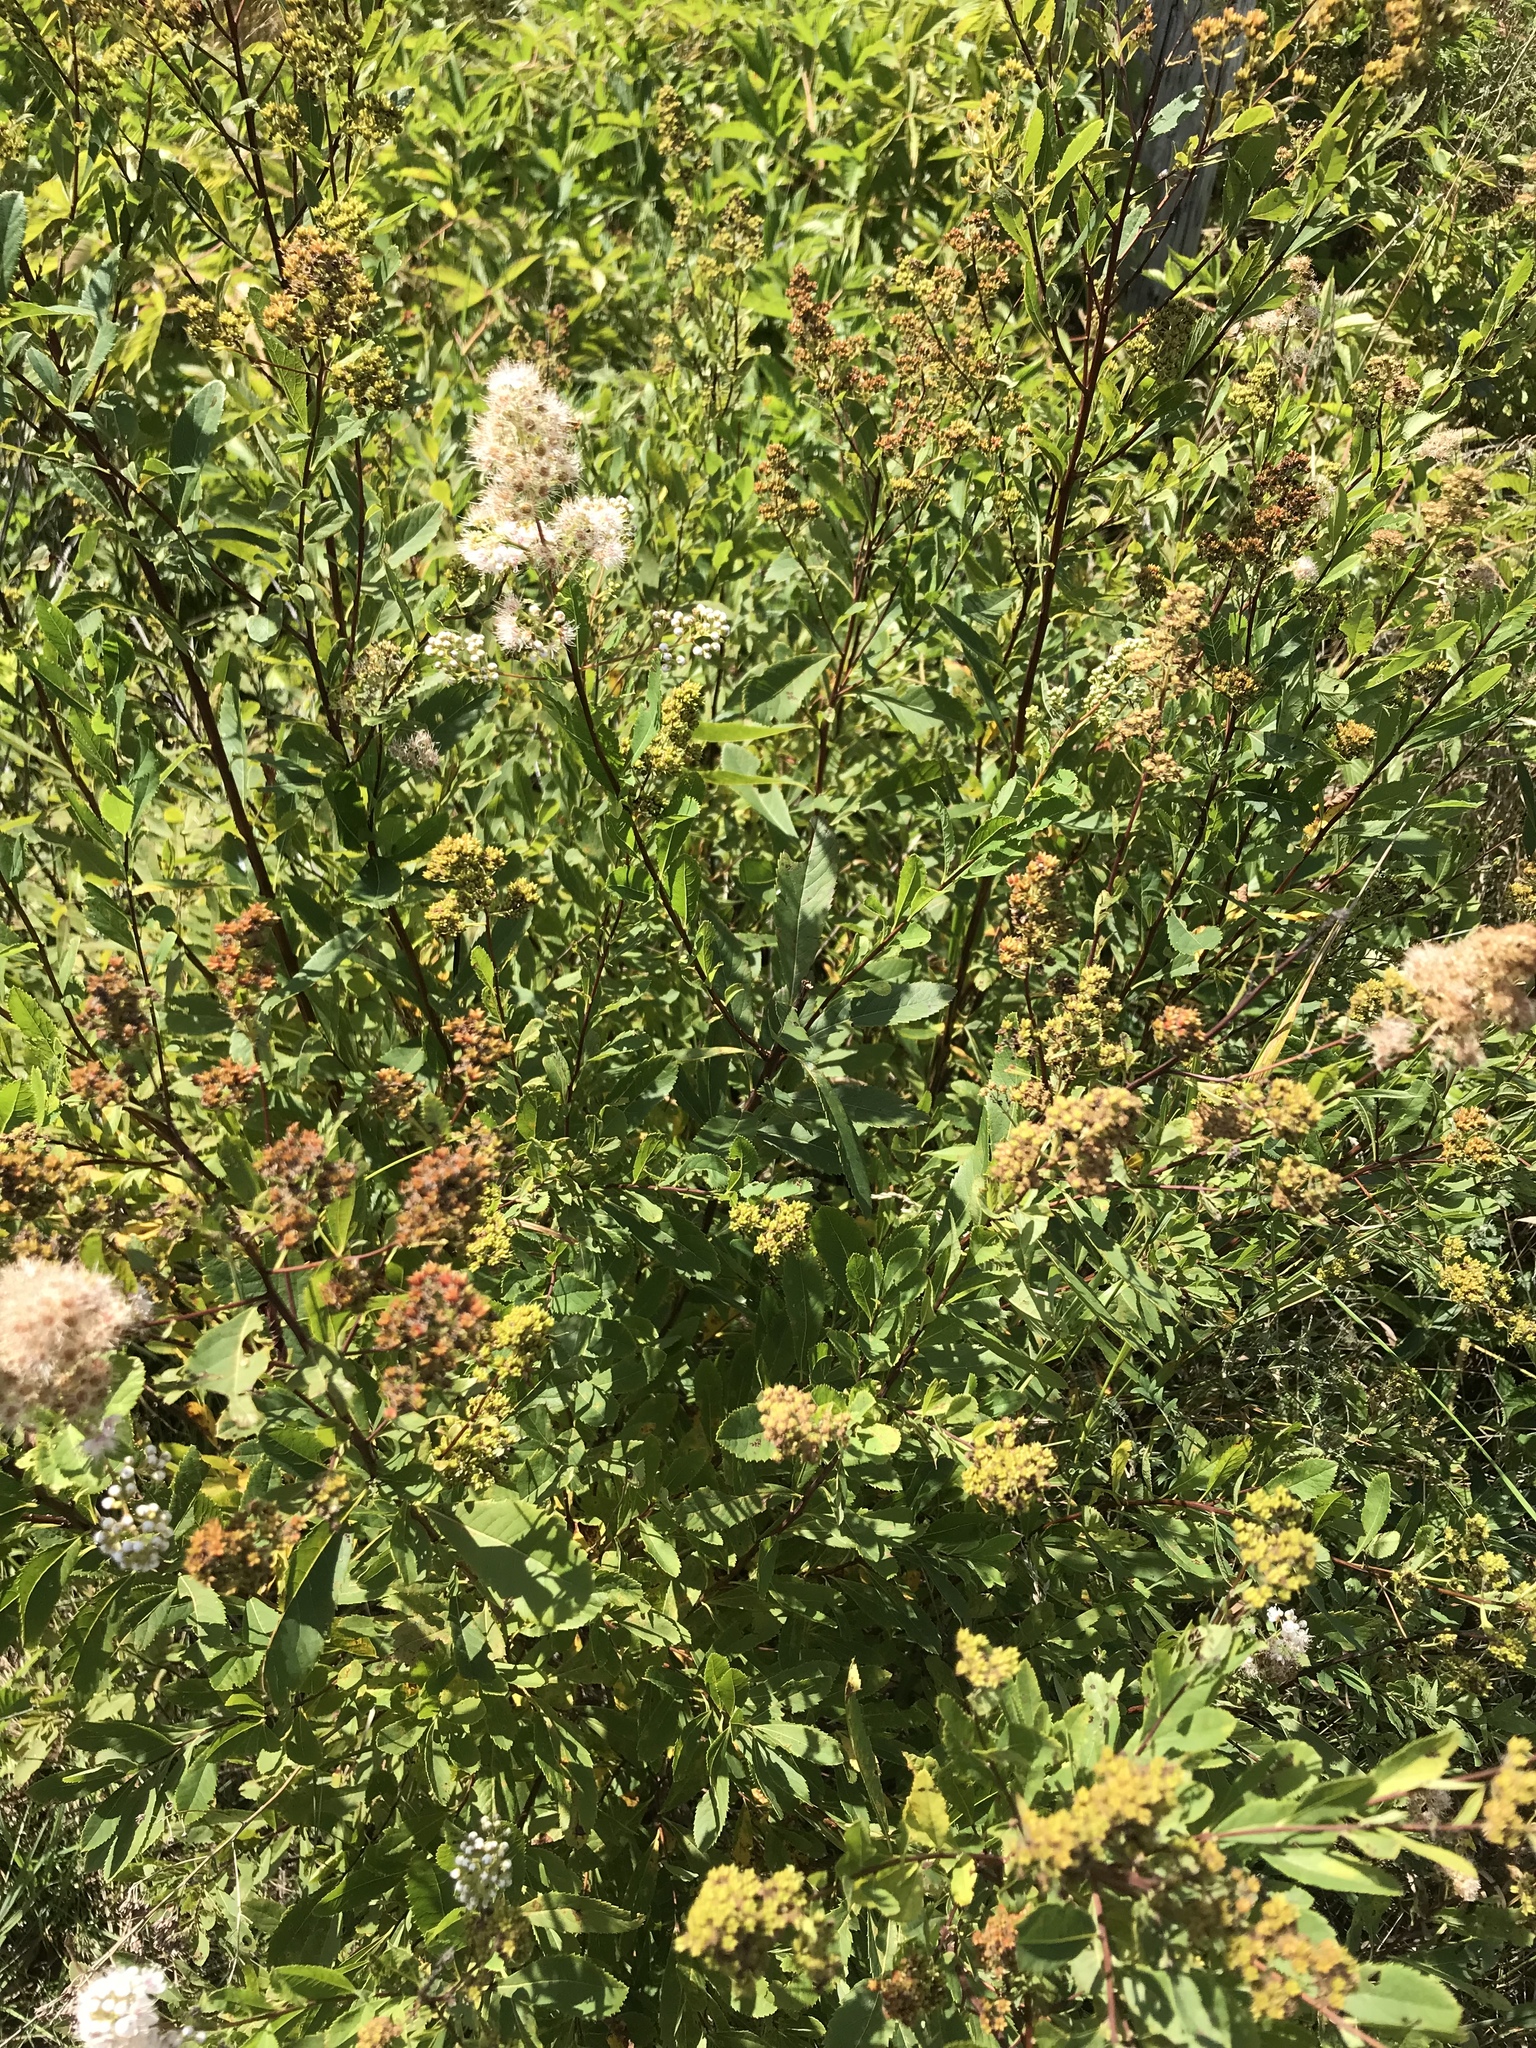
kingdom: Plantae
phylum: Tracheophyta
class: Magnoliopsida
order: Rosales
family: Rosaceae
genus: Spiraea
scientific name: Spiraea alba
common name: Pale bridewort
